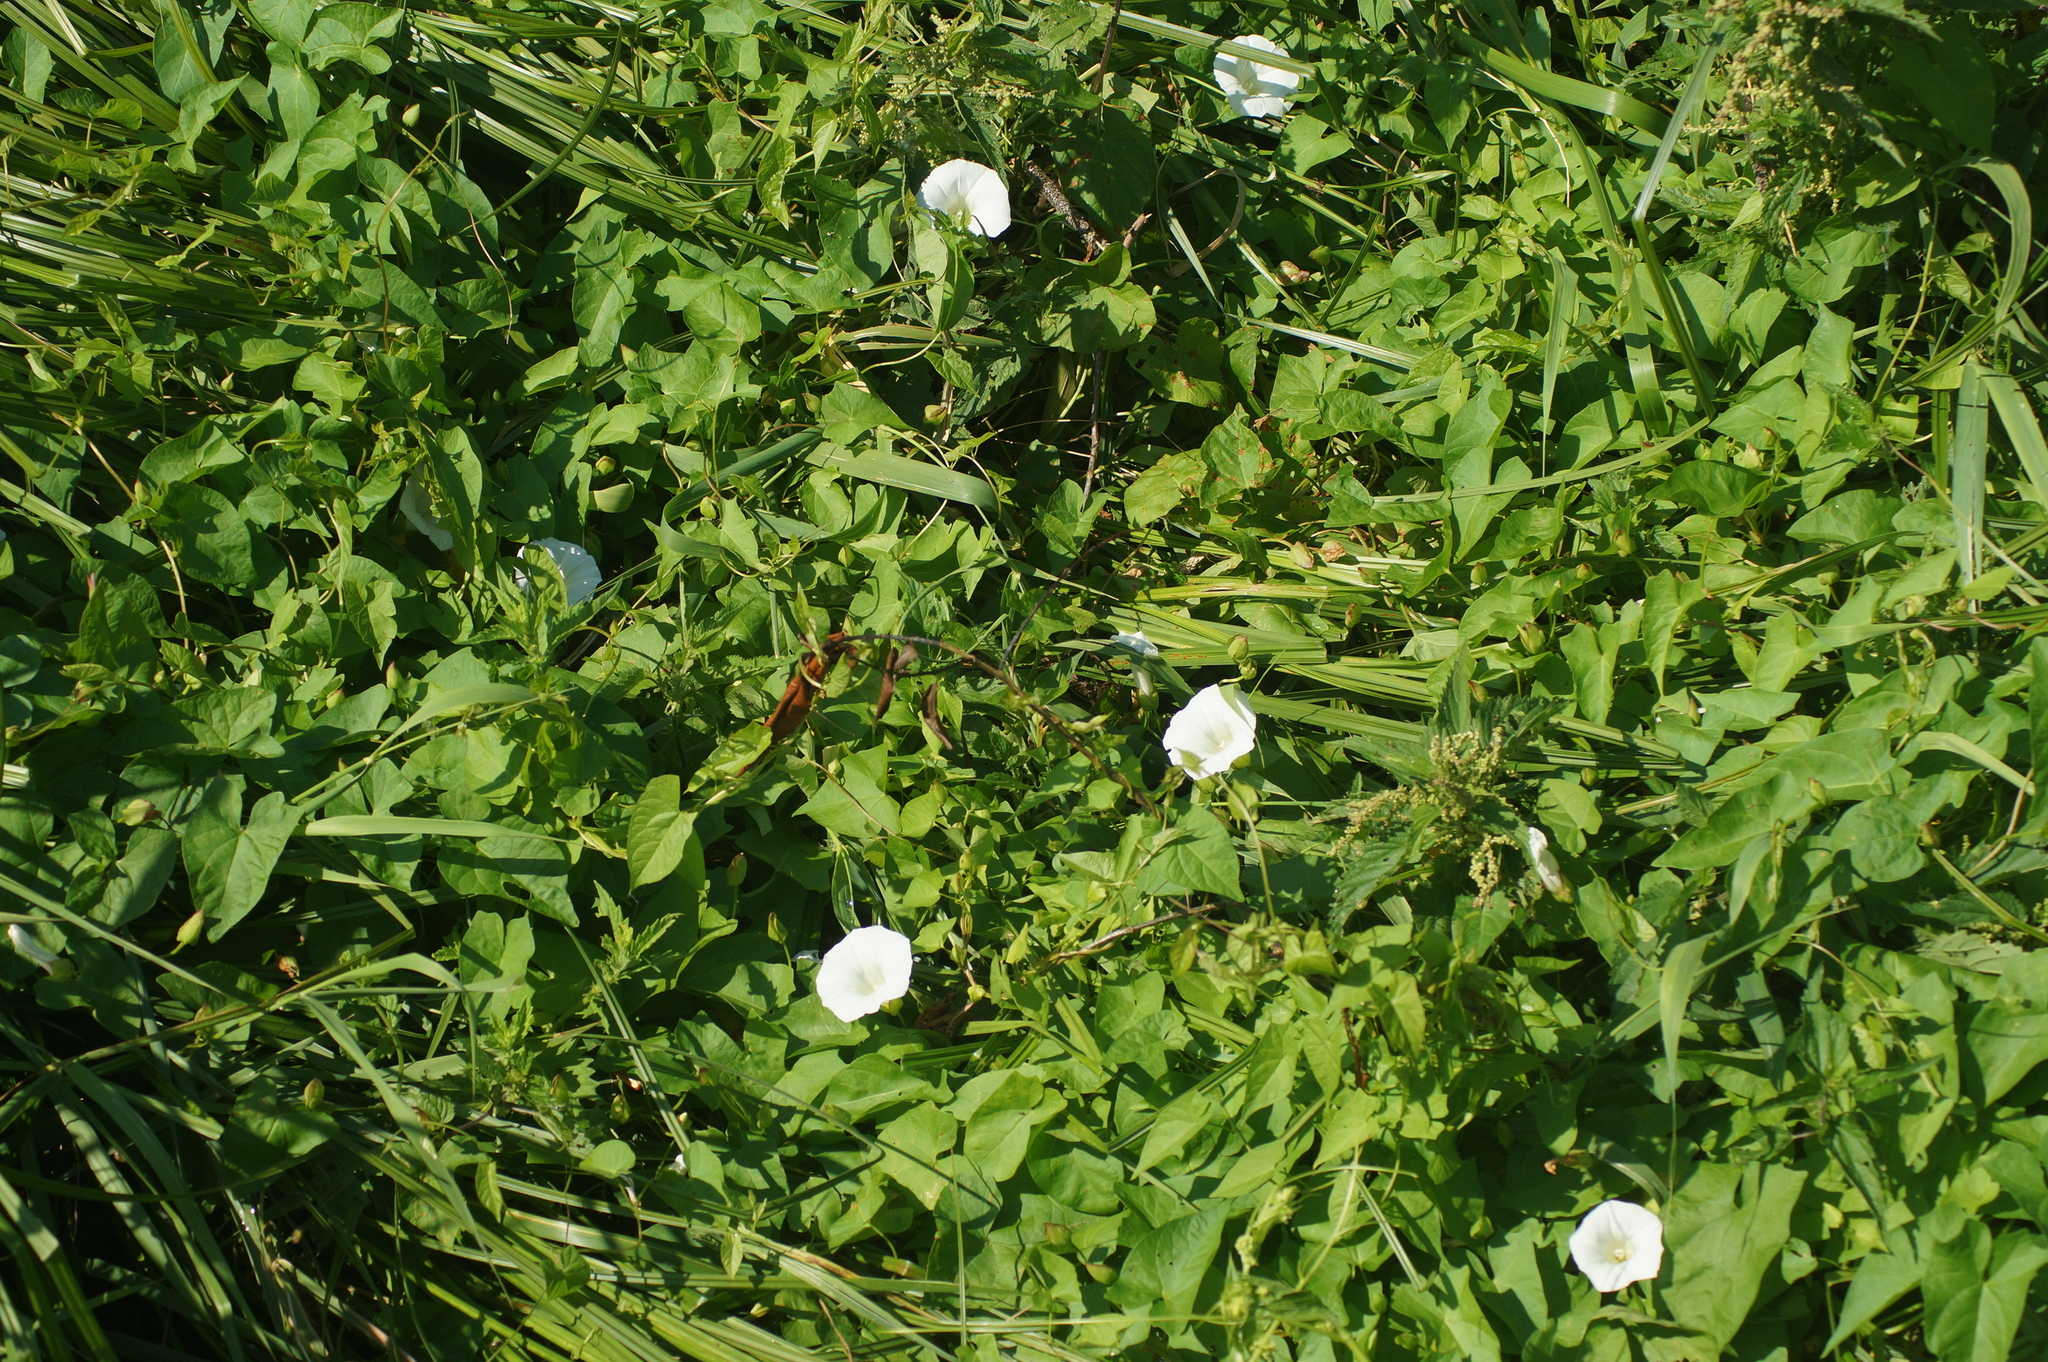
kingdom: Plantae
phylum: Tracheophyta
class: Magnoliopsida
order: Solanales
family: Convolvulaceae
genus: Calystegia
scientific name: Calystegia sepium
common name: Hedge bindweed
